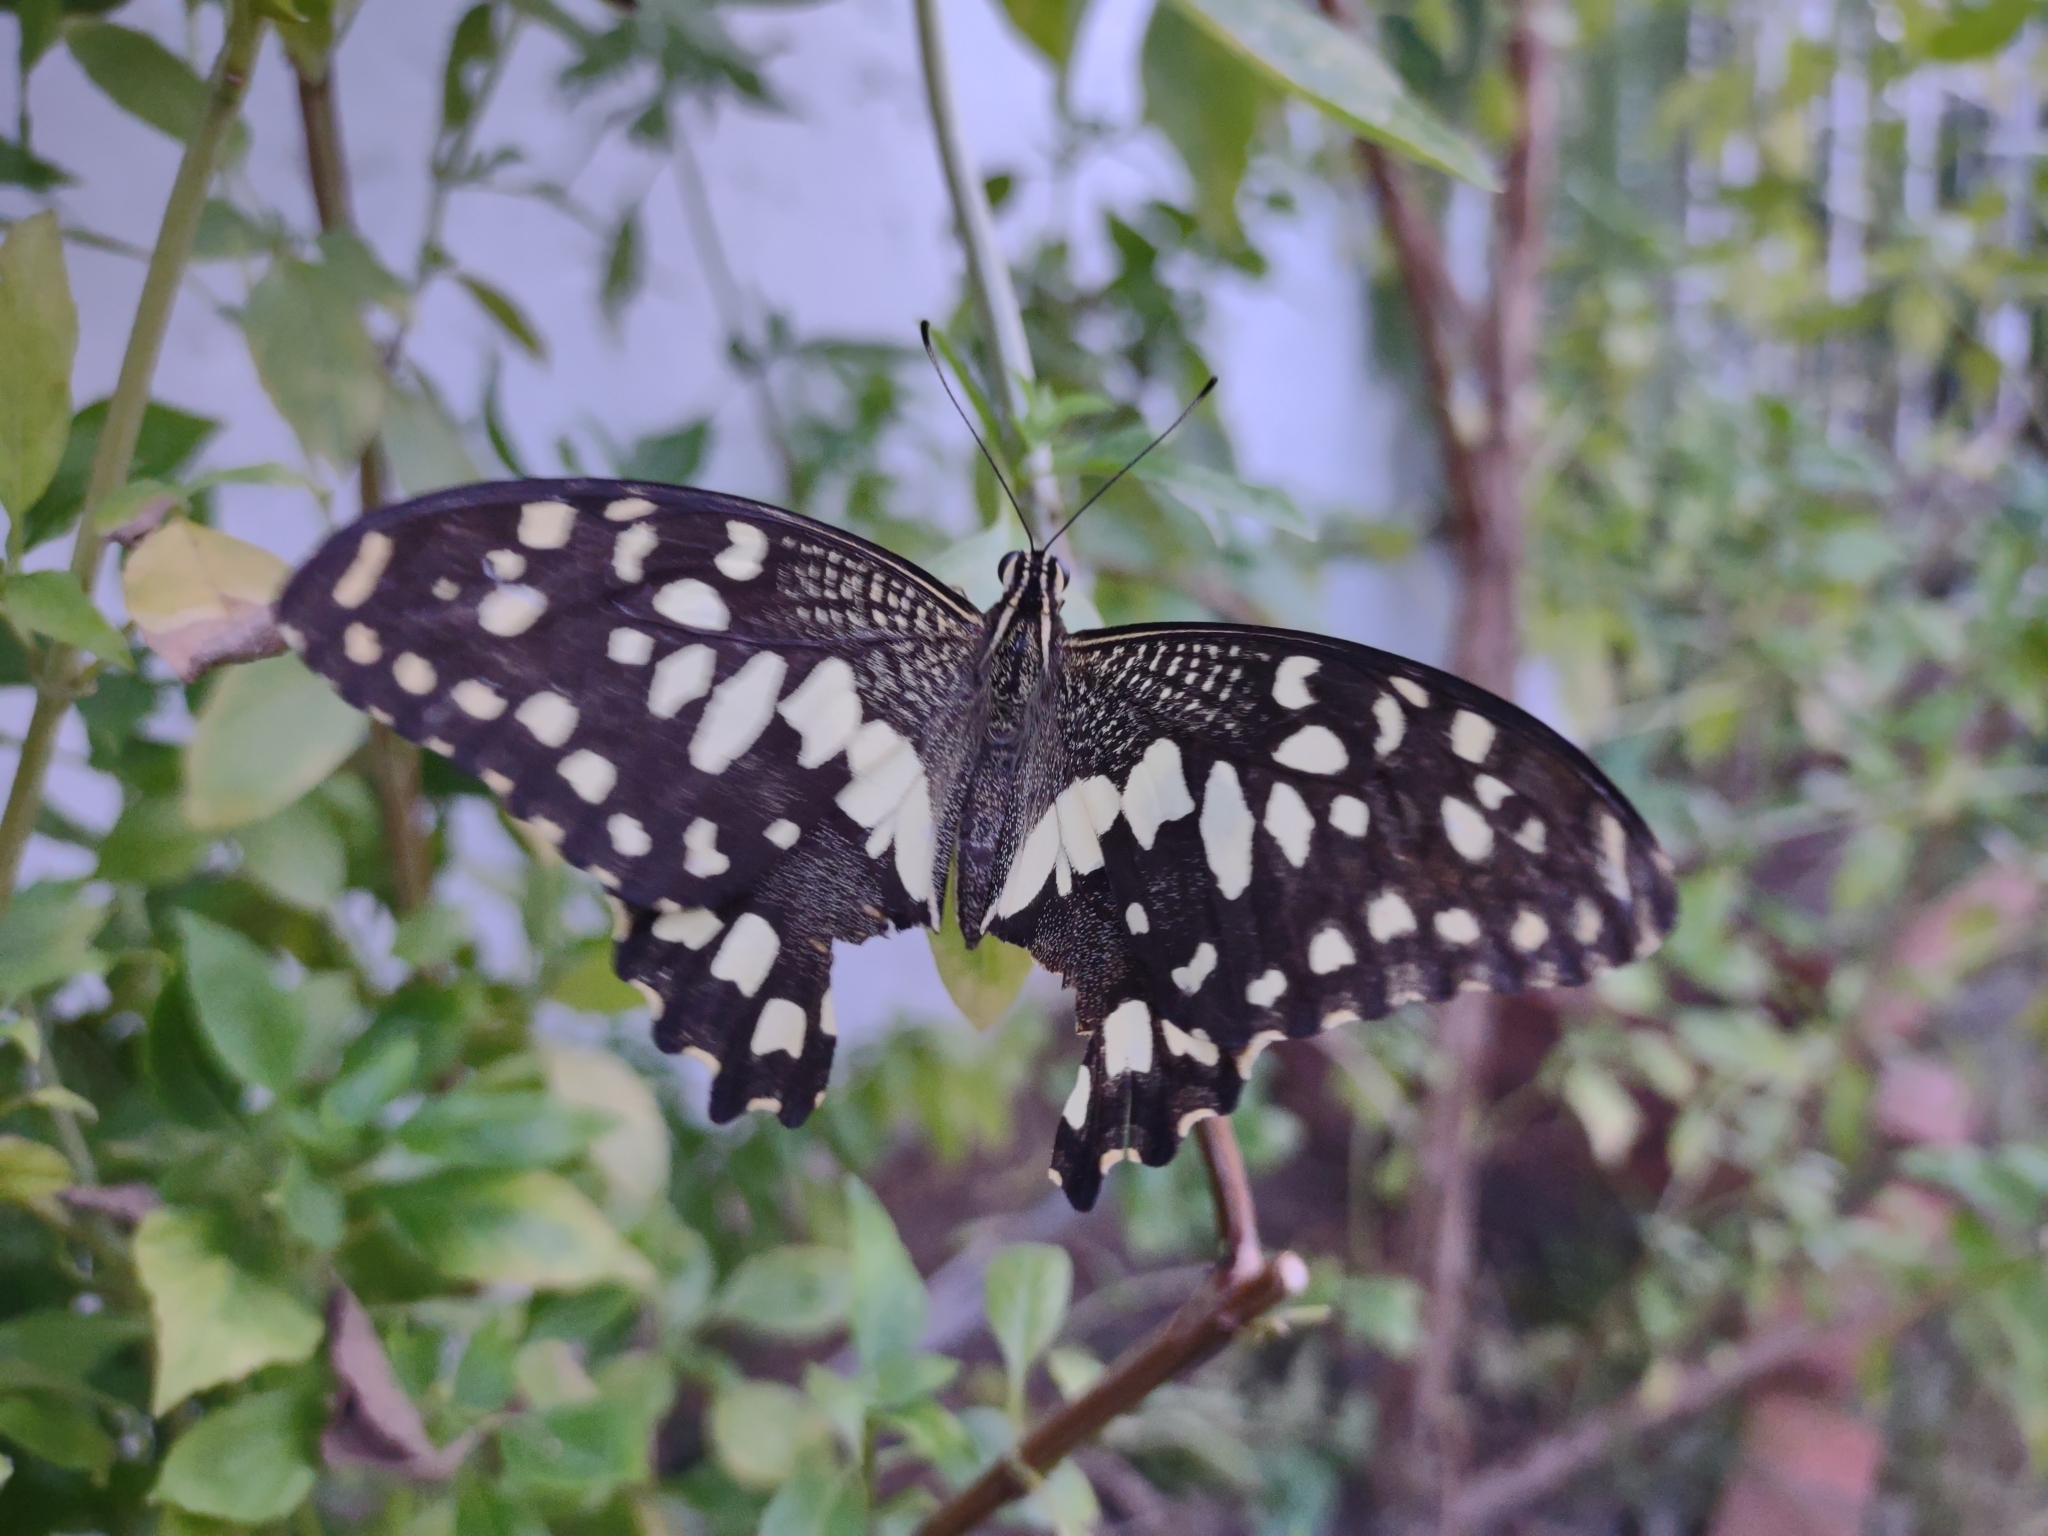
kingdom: Animalia
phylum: Arthropoda
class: Insecta
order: Lepidoptera
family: Papilionidae
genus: Papilio
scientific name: Papilio demoleus
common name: Lime butterfly
